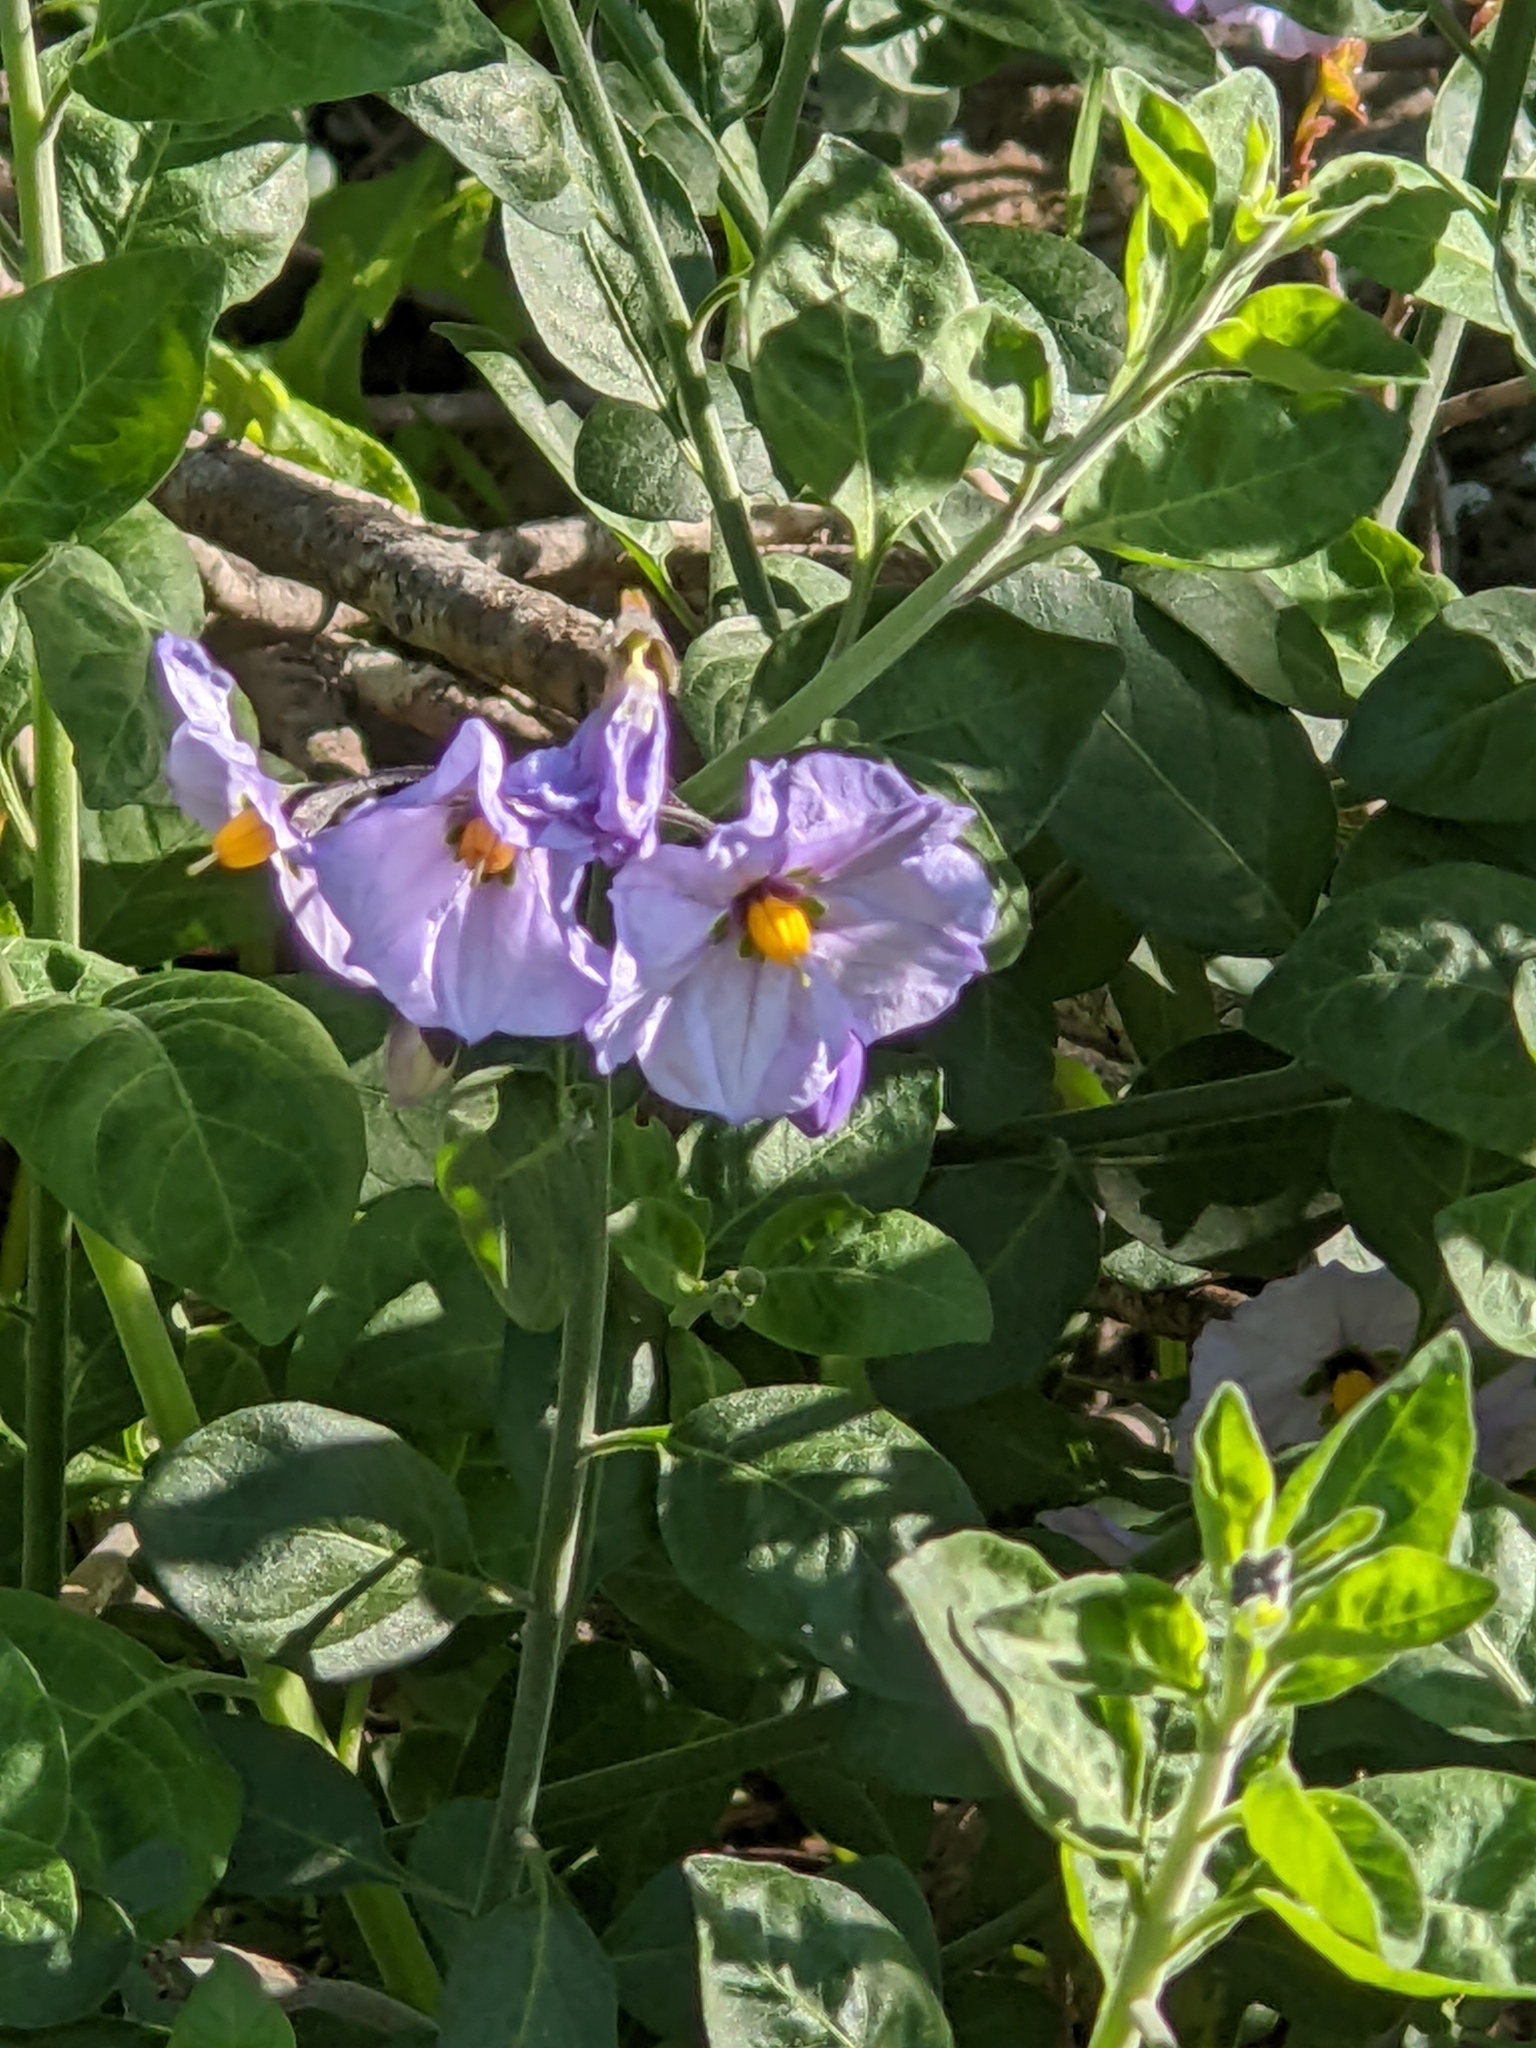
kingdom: Plantae
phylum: Tracheophyta
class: Magnoliopsida
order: Solanales
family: Solanaceae
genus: Solanum
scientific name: Solanum umbelliferum
